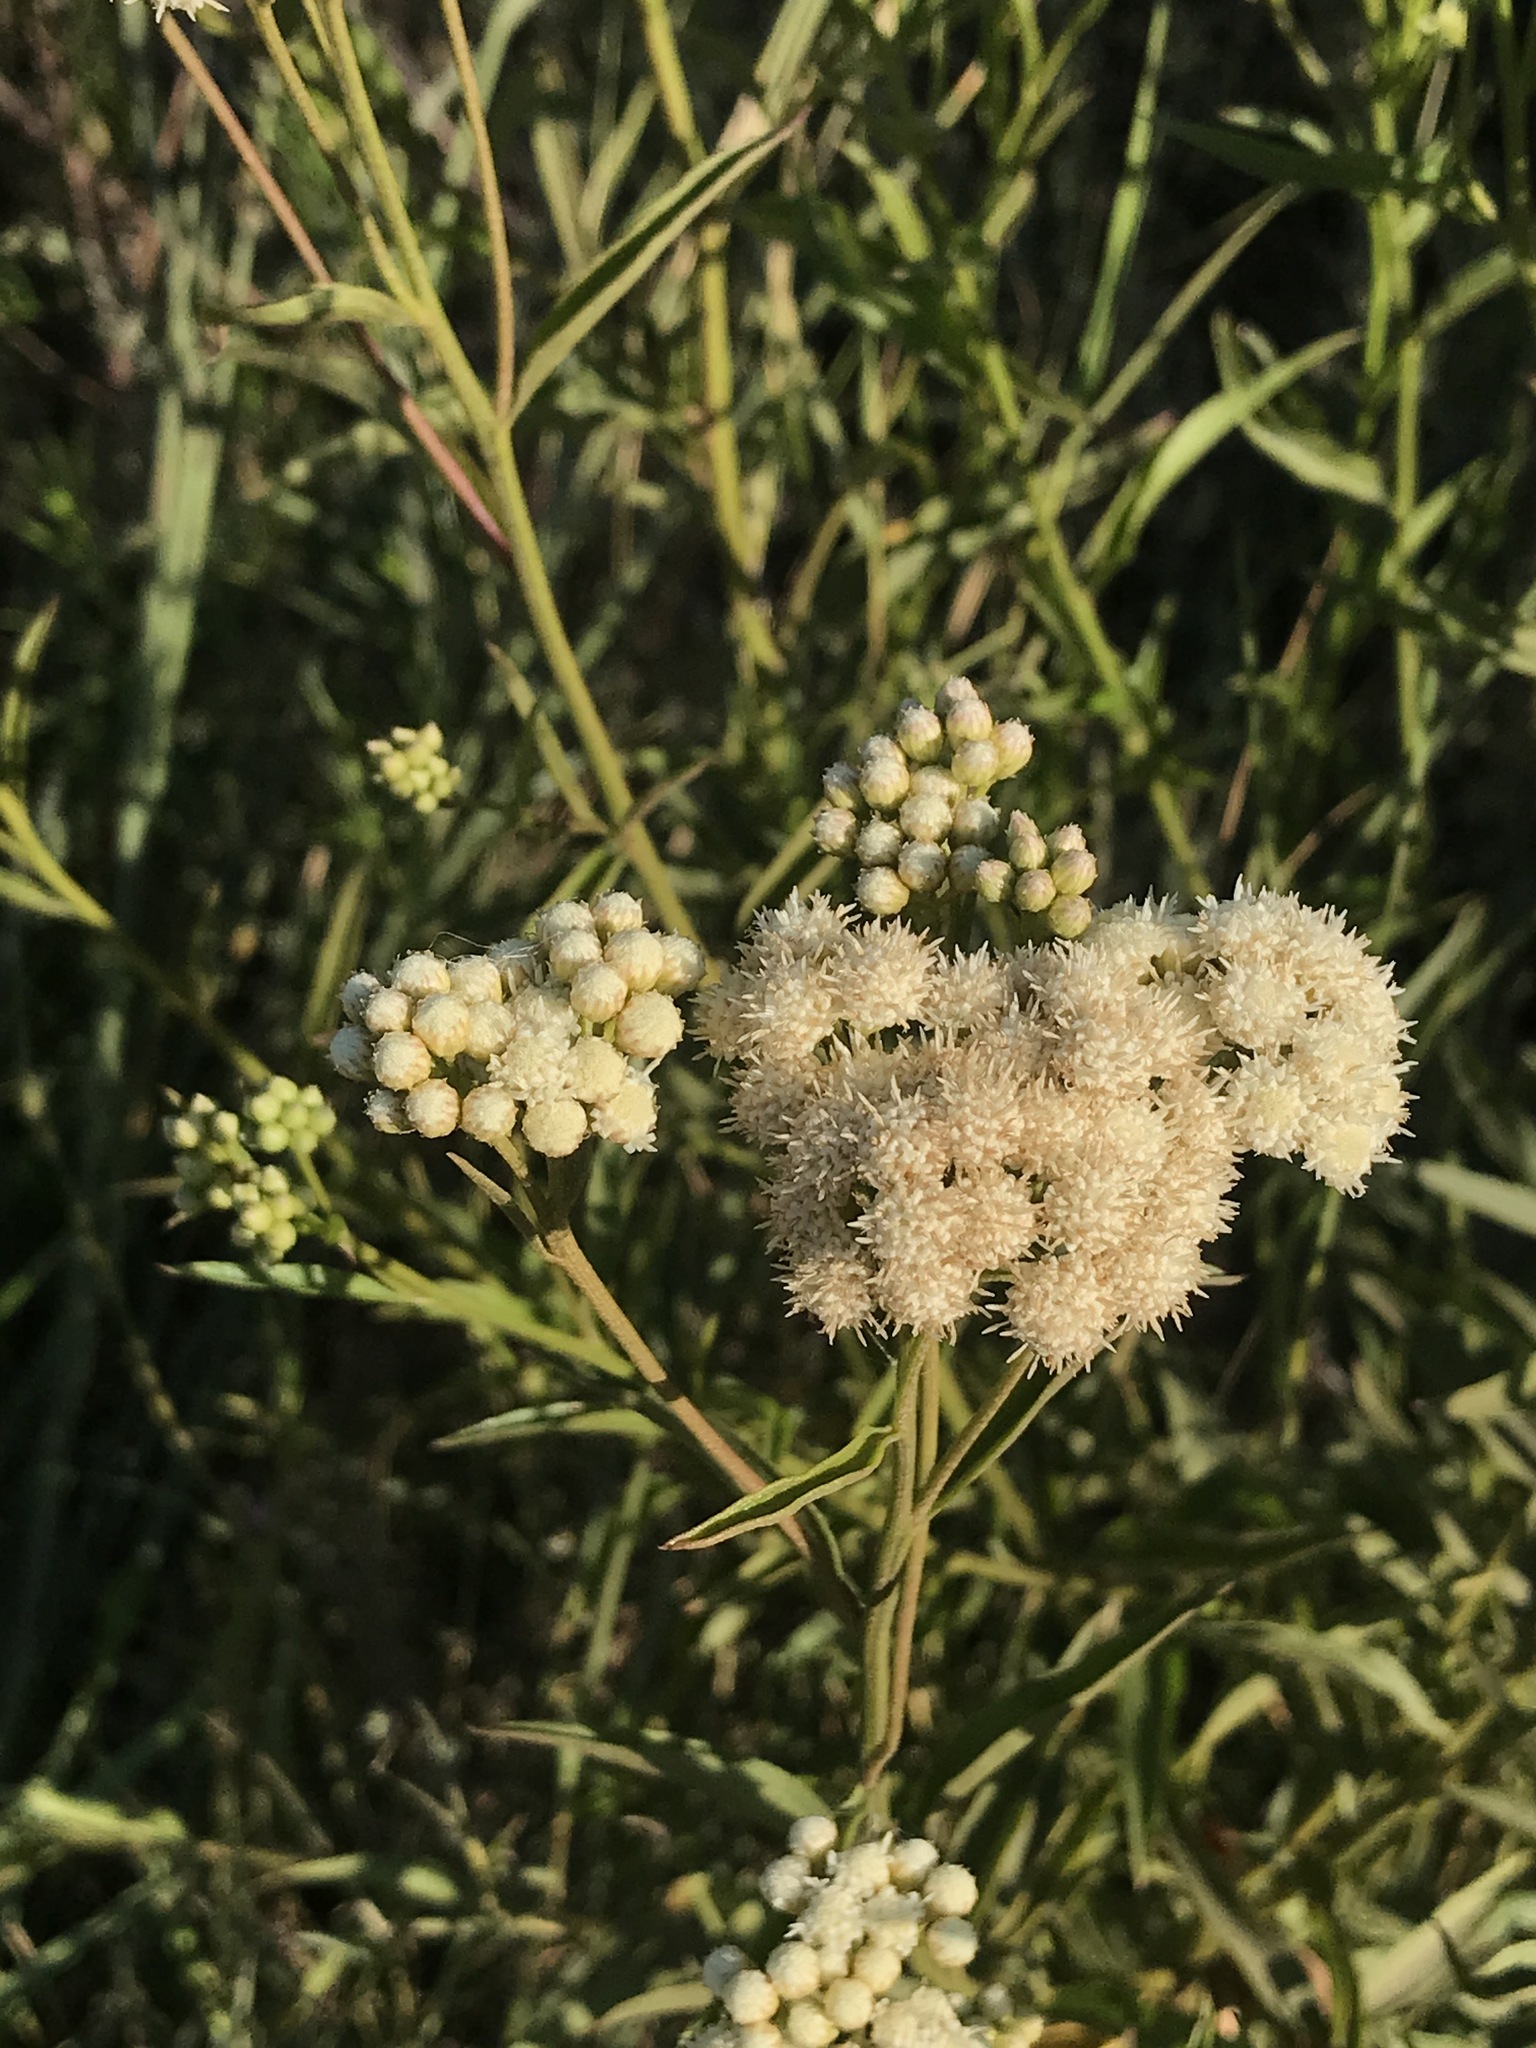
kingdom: Plantae
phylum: Tracheophyta
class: Magnoliopsida
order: Asterales
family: Asteraceae
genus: Baccharis
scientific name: Baccharis glutinosa
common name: Saltmarsh baccharis
